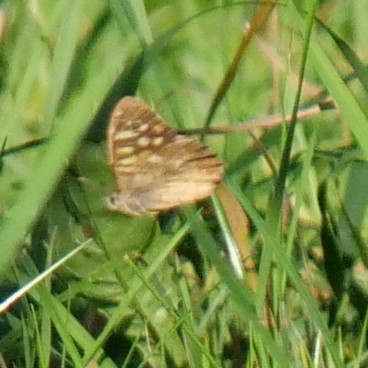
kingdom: Animalia
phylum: Arthropoda
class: Insecta
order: Lepidoptera
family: Nymphalidae
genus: Pararge
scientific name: Pararge aegeria
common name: Speckled wood
